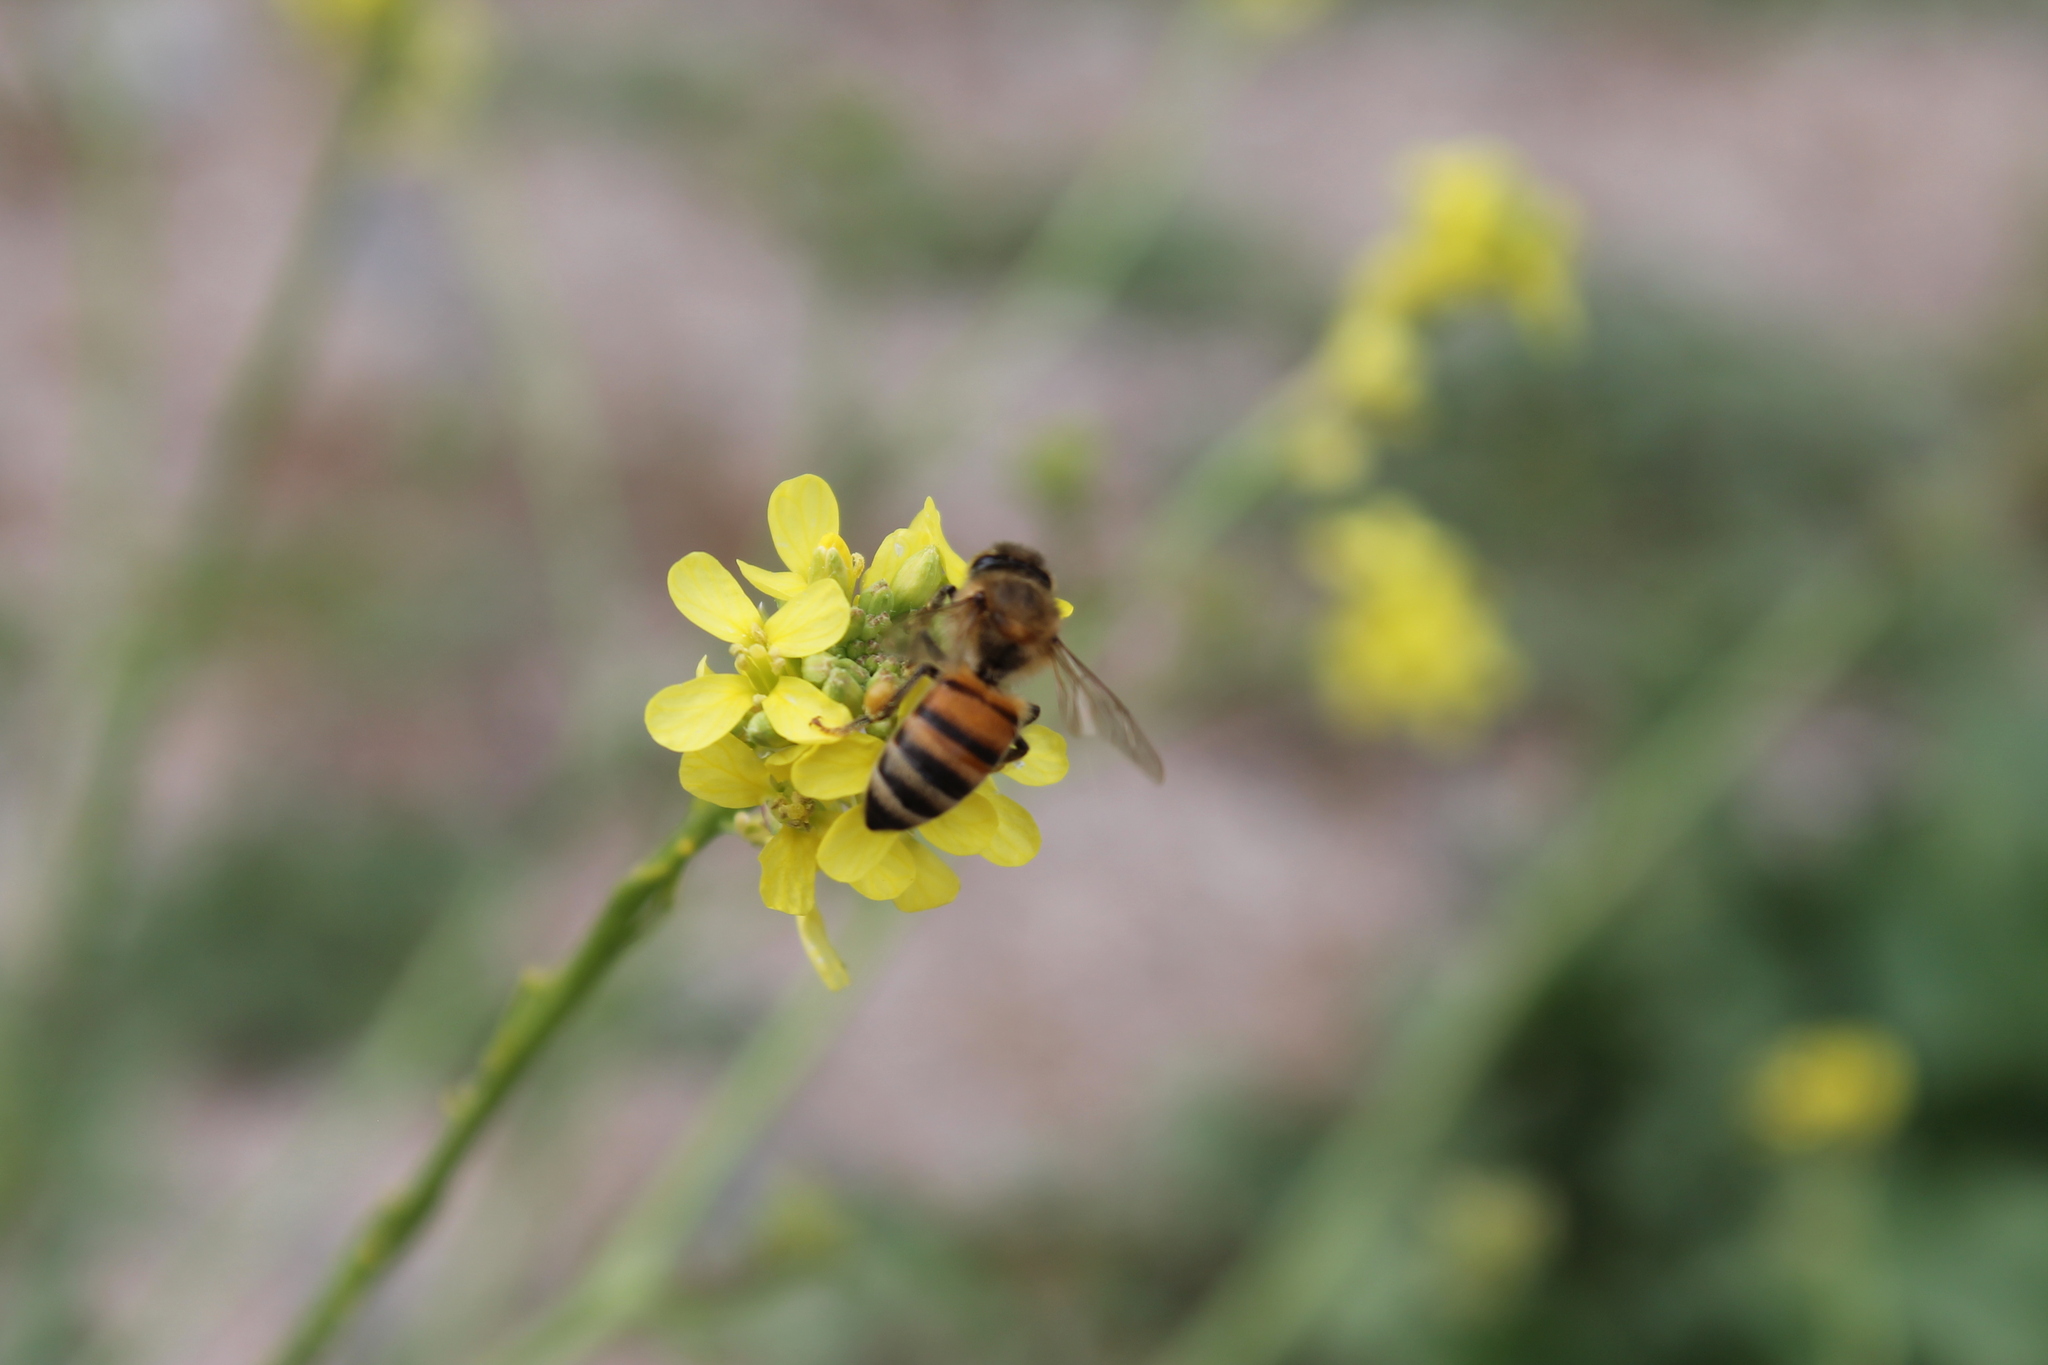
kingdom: Animalia
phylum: Arthropoda
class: Insecta
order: Hymenoptera
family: Apidae
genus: Apis
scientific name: Apis mellifera
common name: Honey bee
